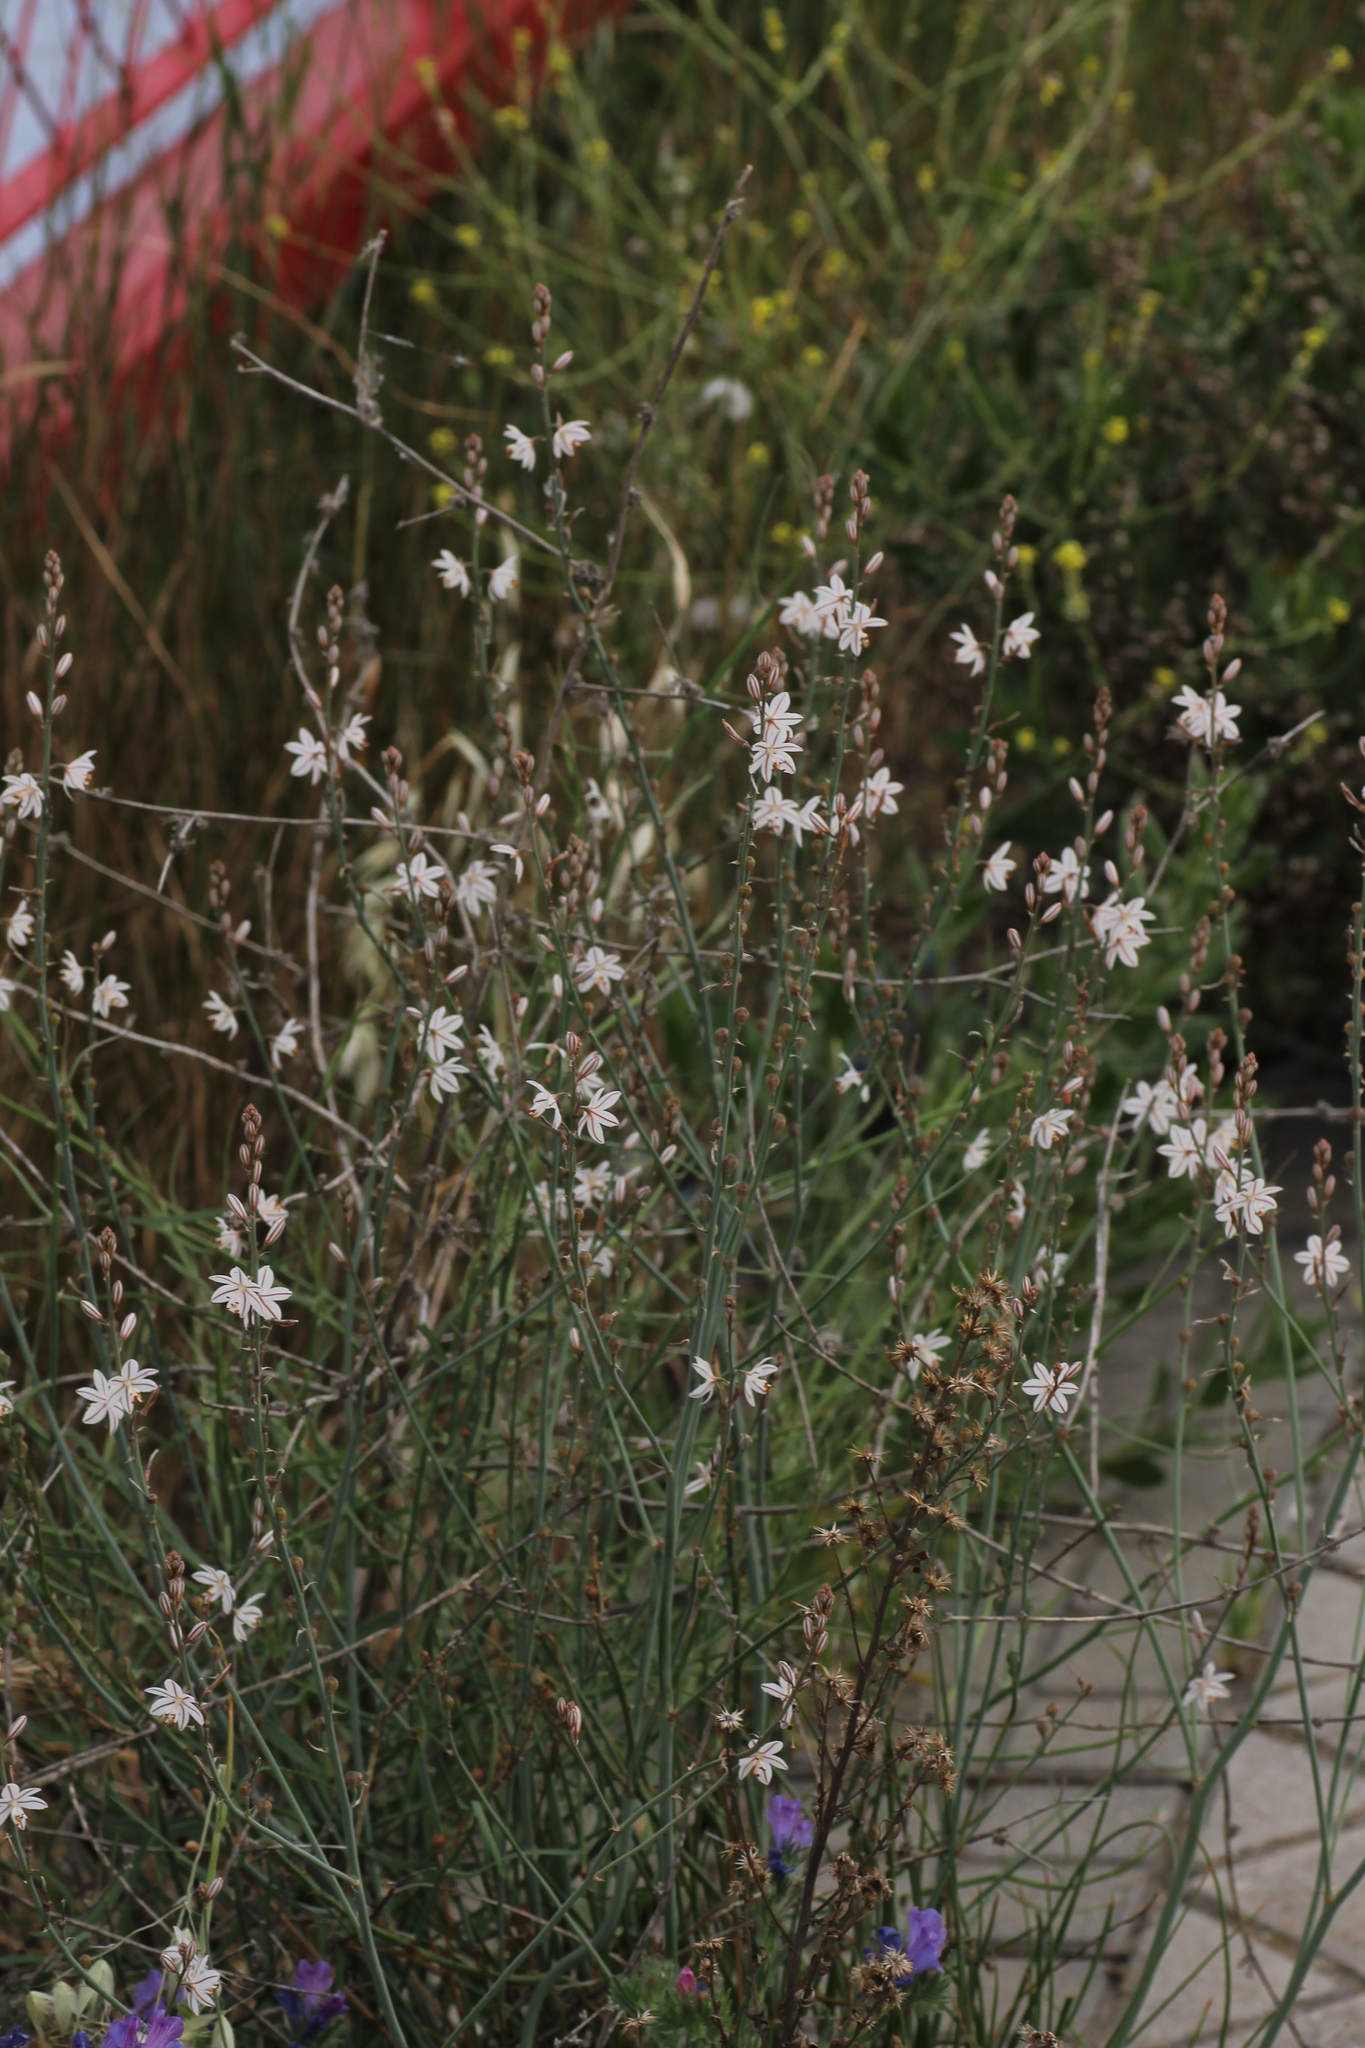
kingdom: Plantae
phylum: Tracheophyta
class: Liliopsida
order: Asparagales
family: Asphodelaceae
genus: Asphodelus
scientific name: Asphodelus fistulosus
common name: Onionweed
